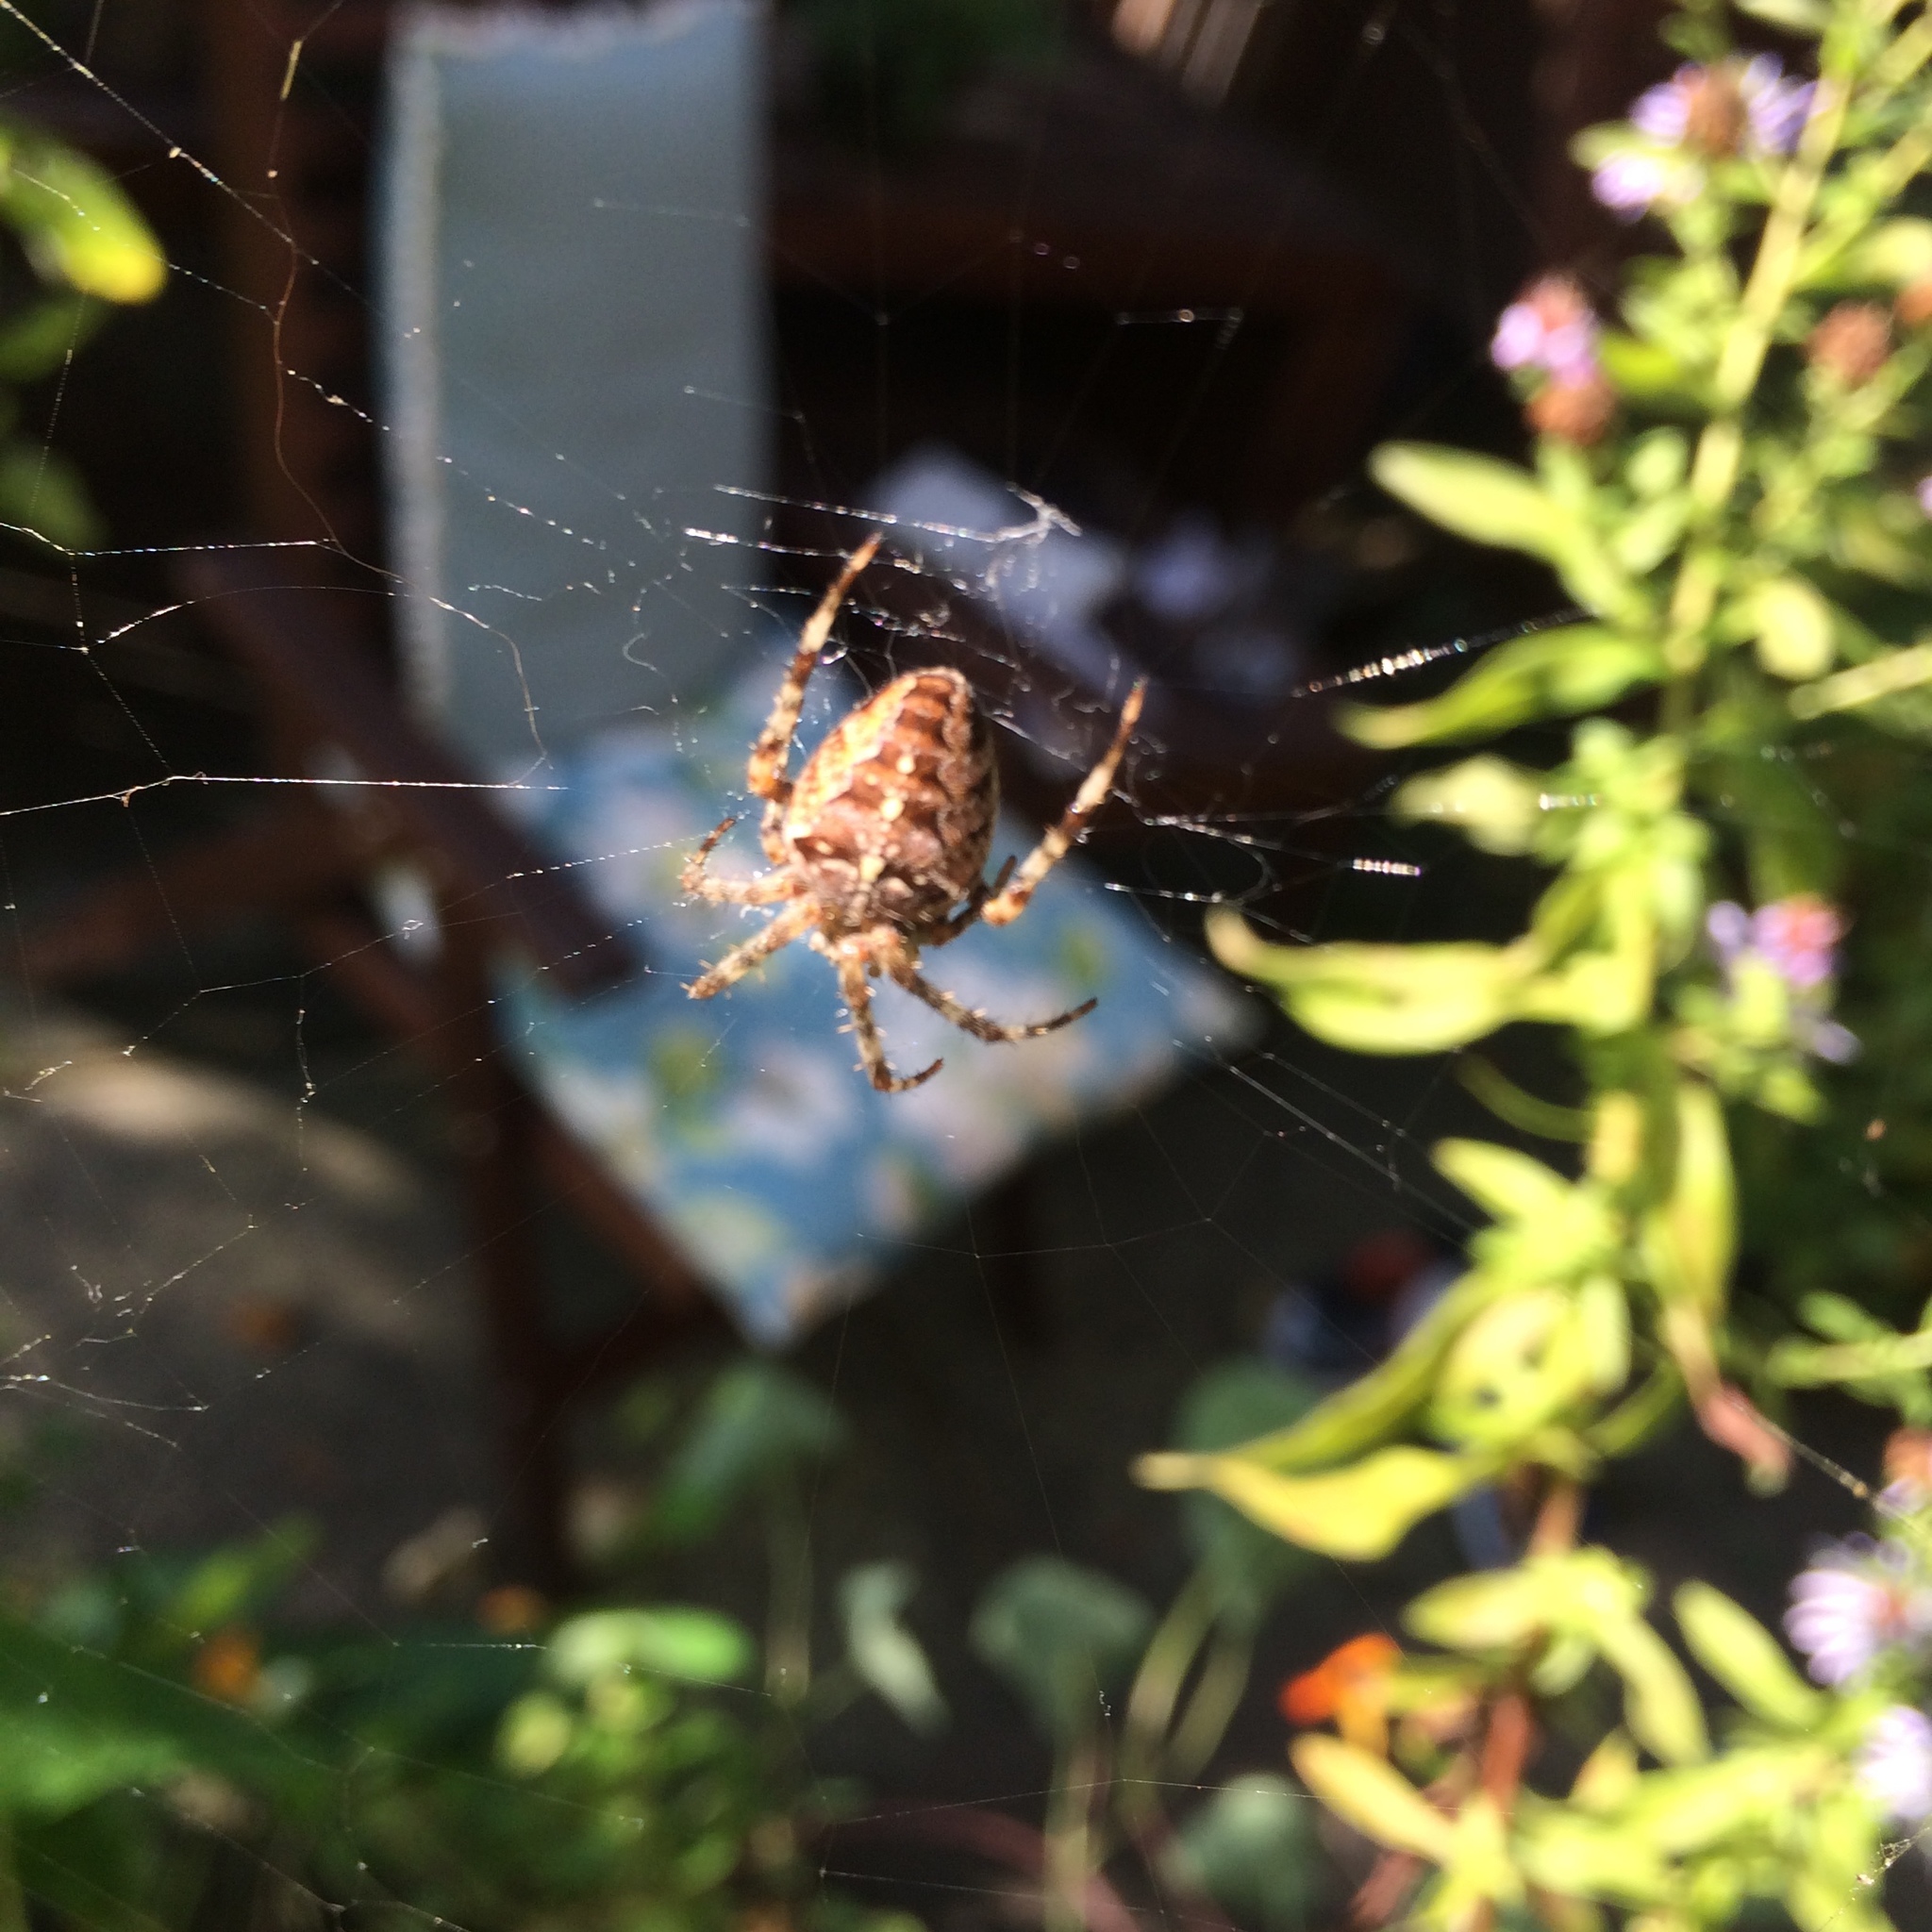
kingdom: Animalia
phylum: Arthropoda
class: Arachnida
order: Araneae
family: Araneidae
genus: Araneus
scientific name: Araneus diadematus
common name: Cross orbweaver
